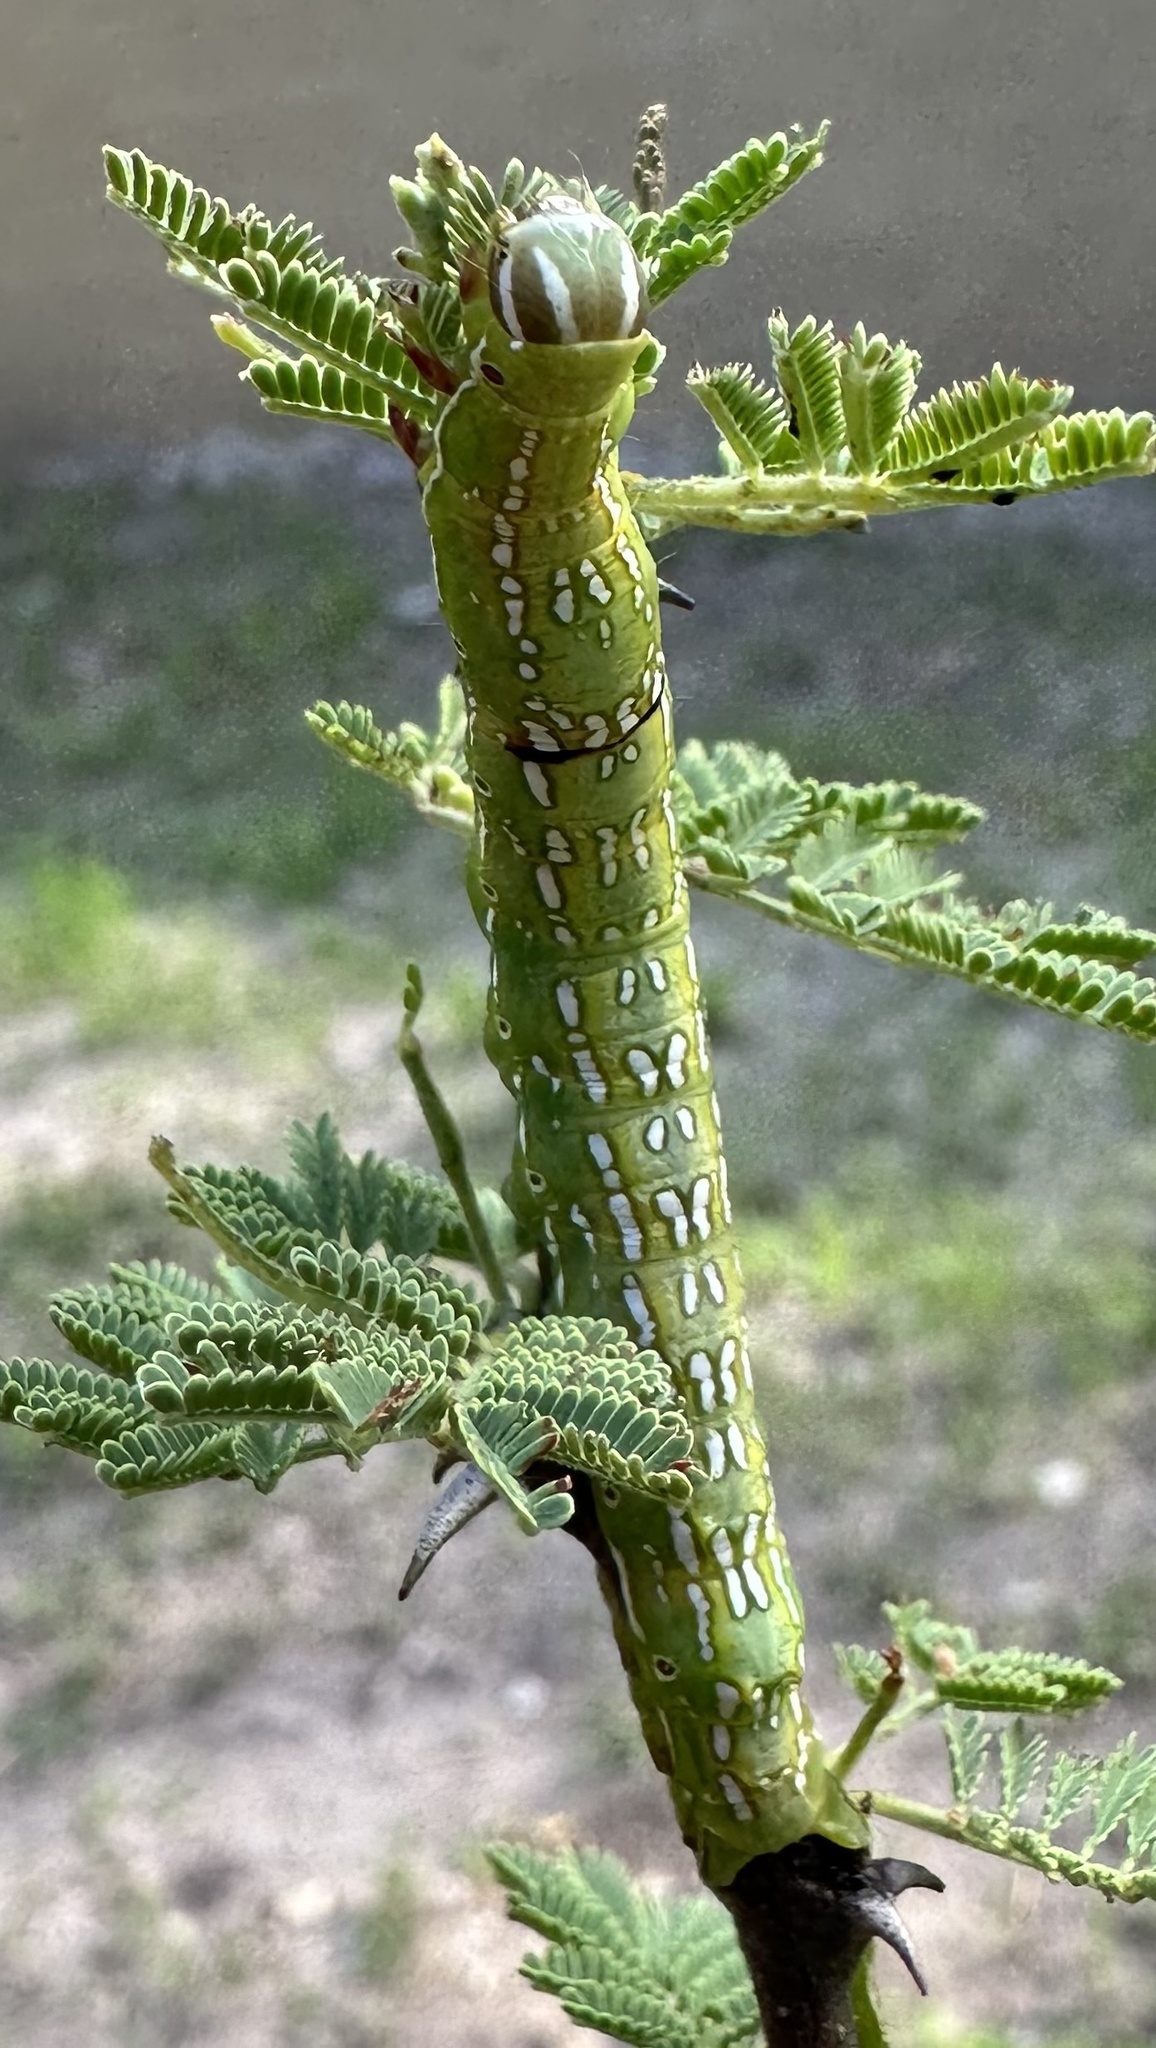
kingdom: Animalia
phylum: Arthropoda
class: Insecta
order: Lepidoptera
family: Erebidae
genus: Sphingomorpha
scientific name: Sphingomorpha chlorea
